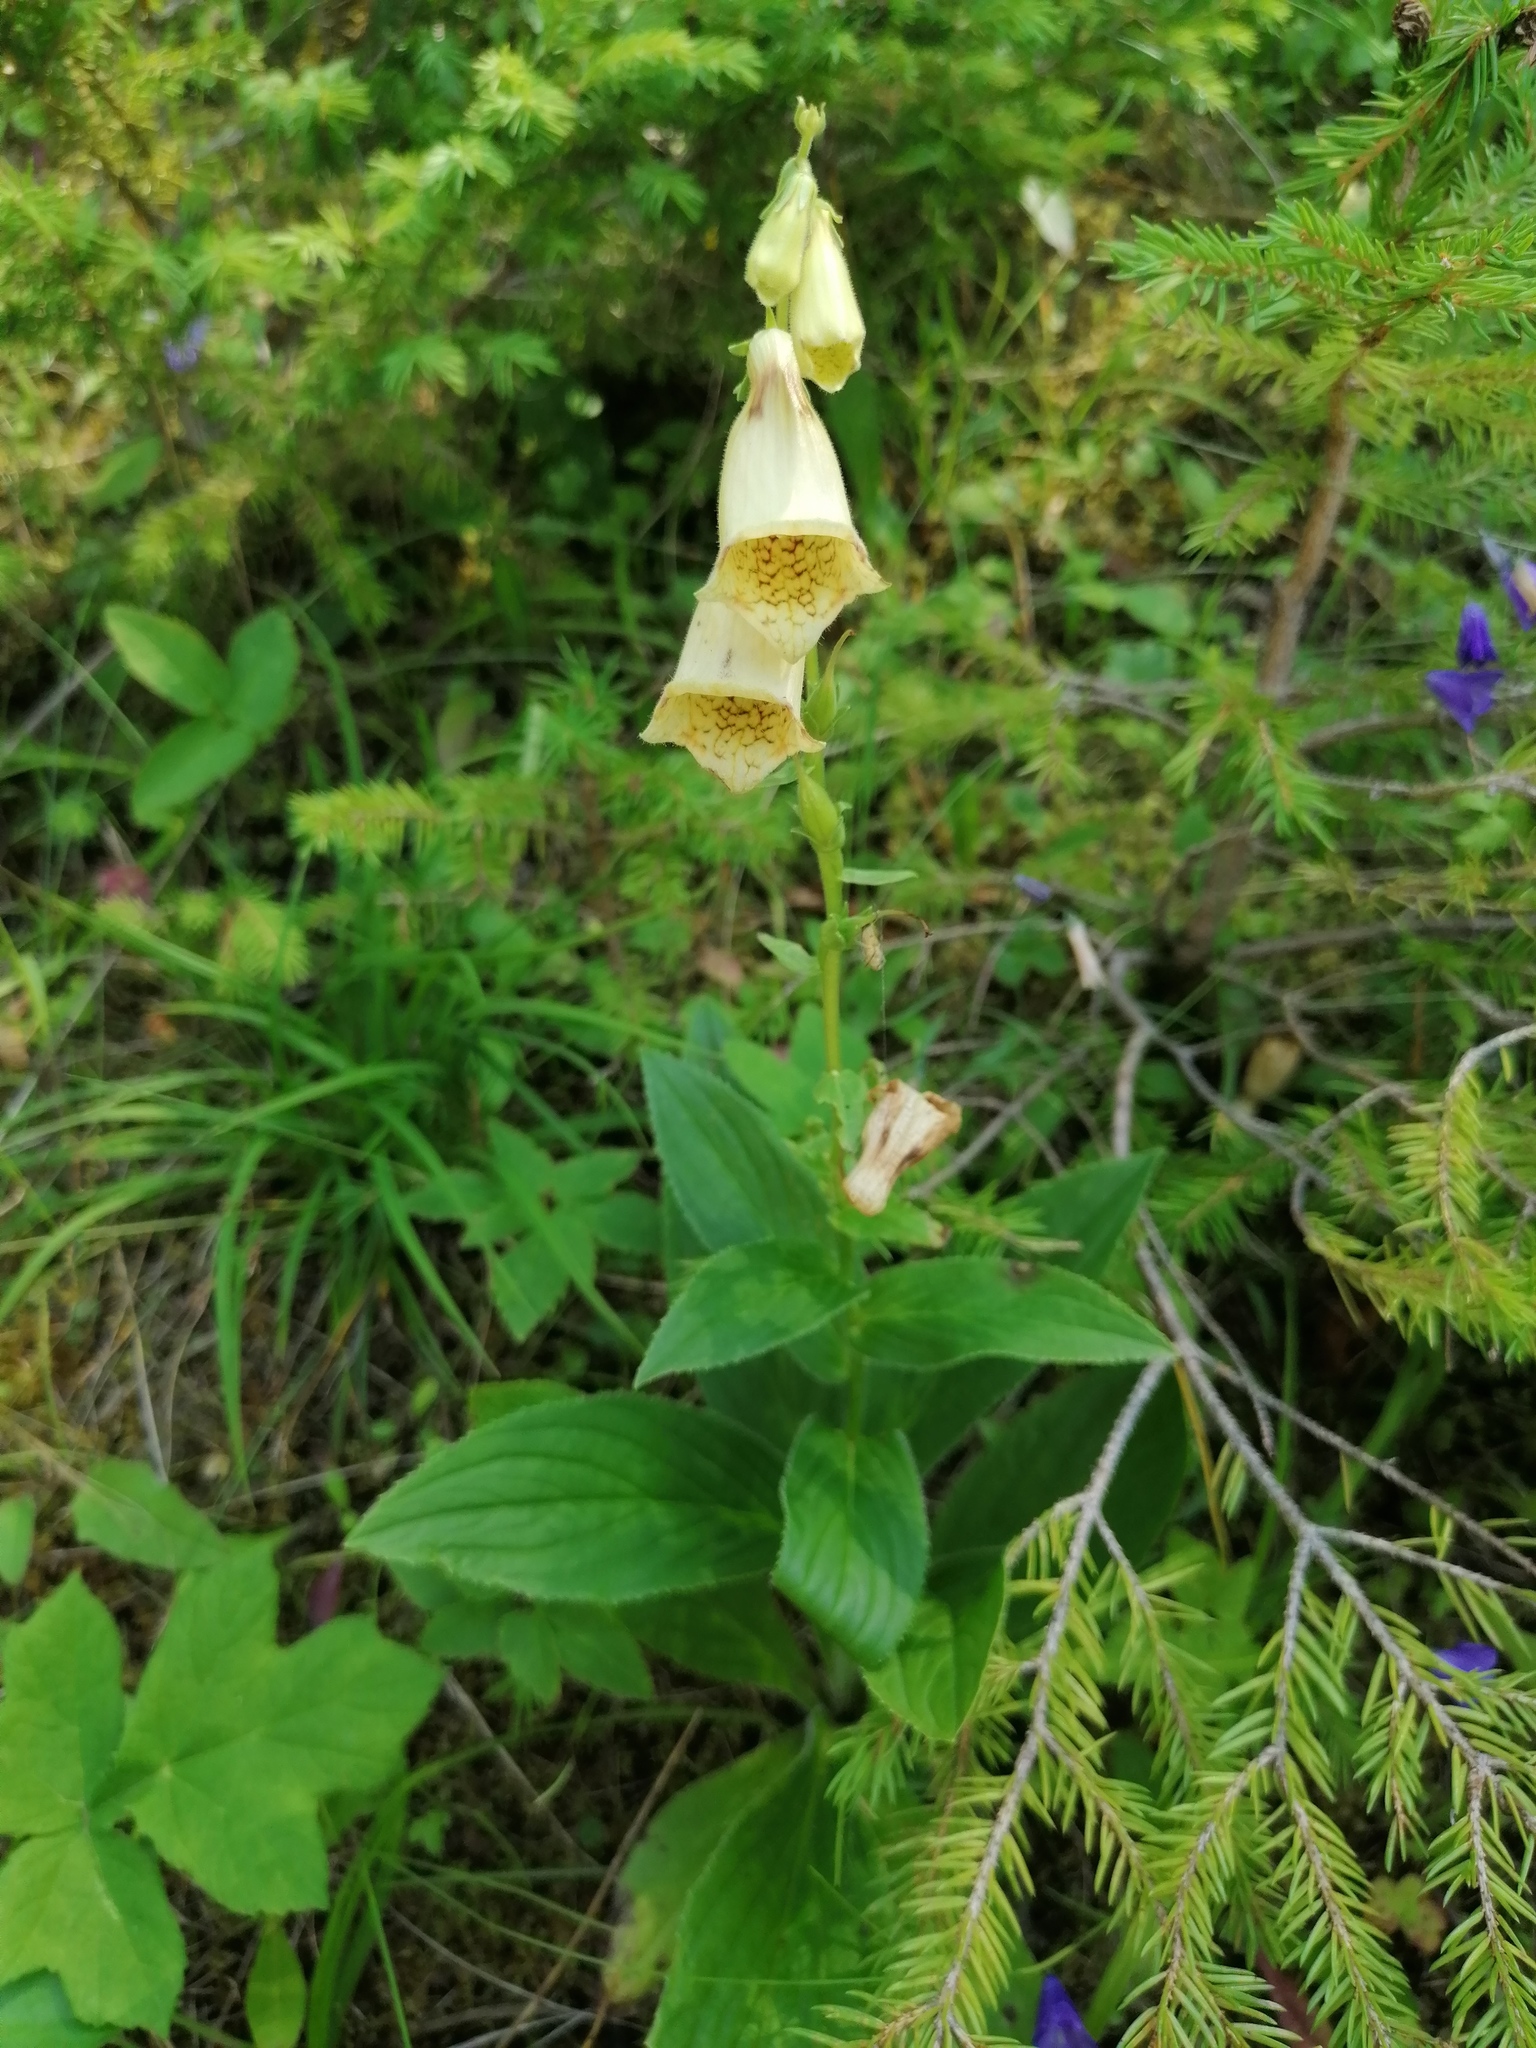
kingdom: Plantae
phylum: Tracheophyta
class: Magnoliopsida
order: Lamiales
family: Plantaginaceae
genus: Digitalis
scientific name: Digitalis grandiflora
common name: Yellow foxglove
